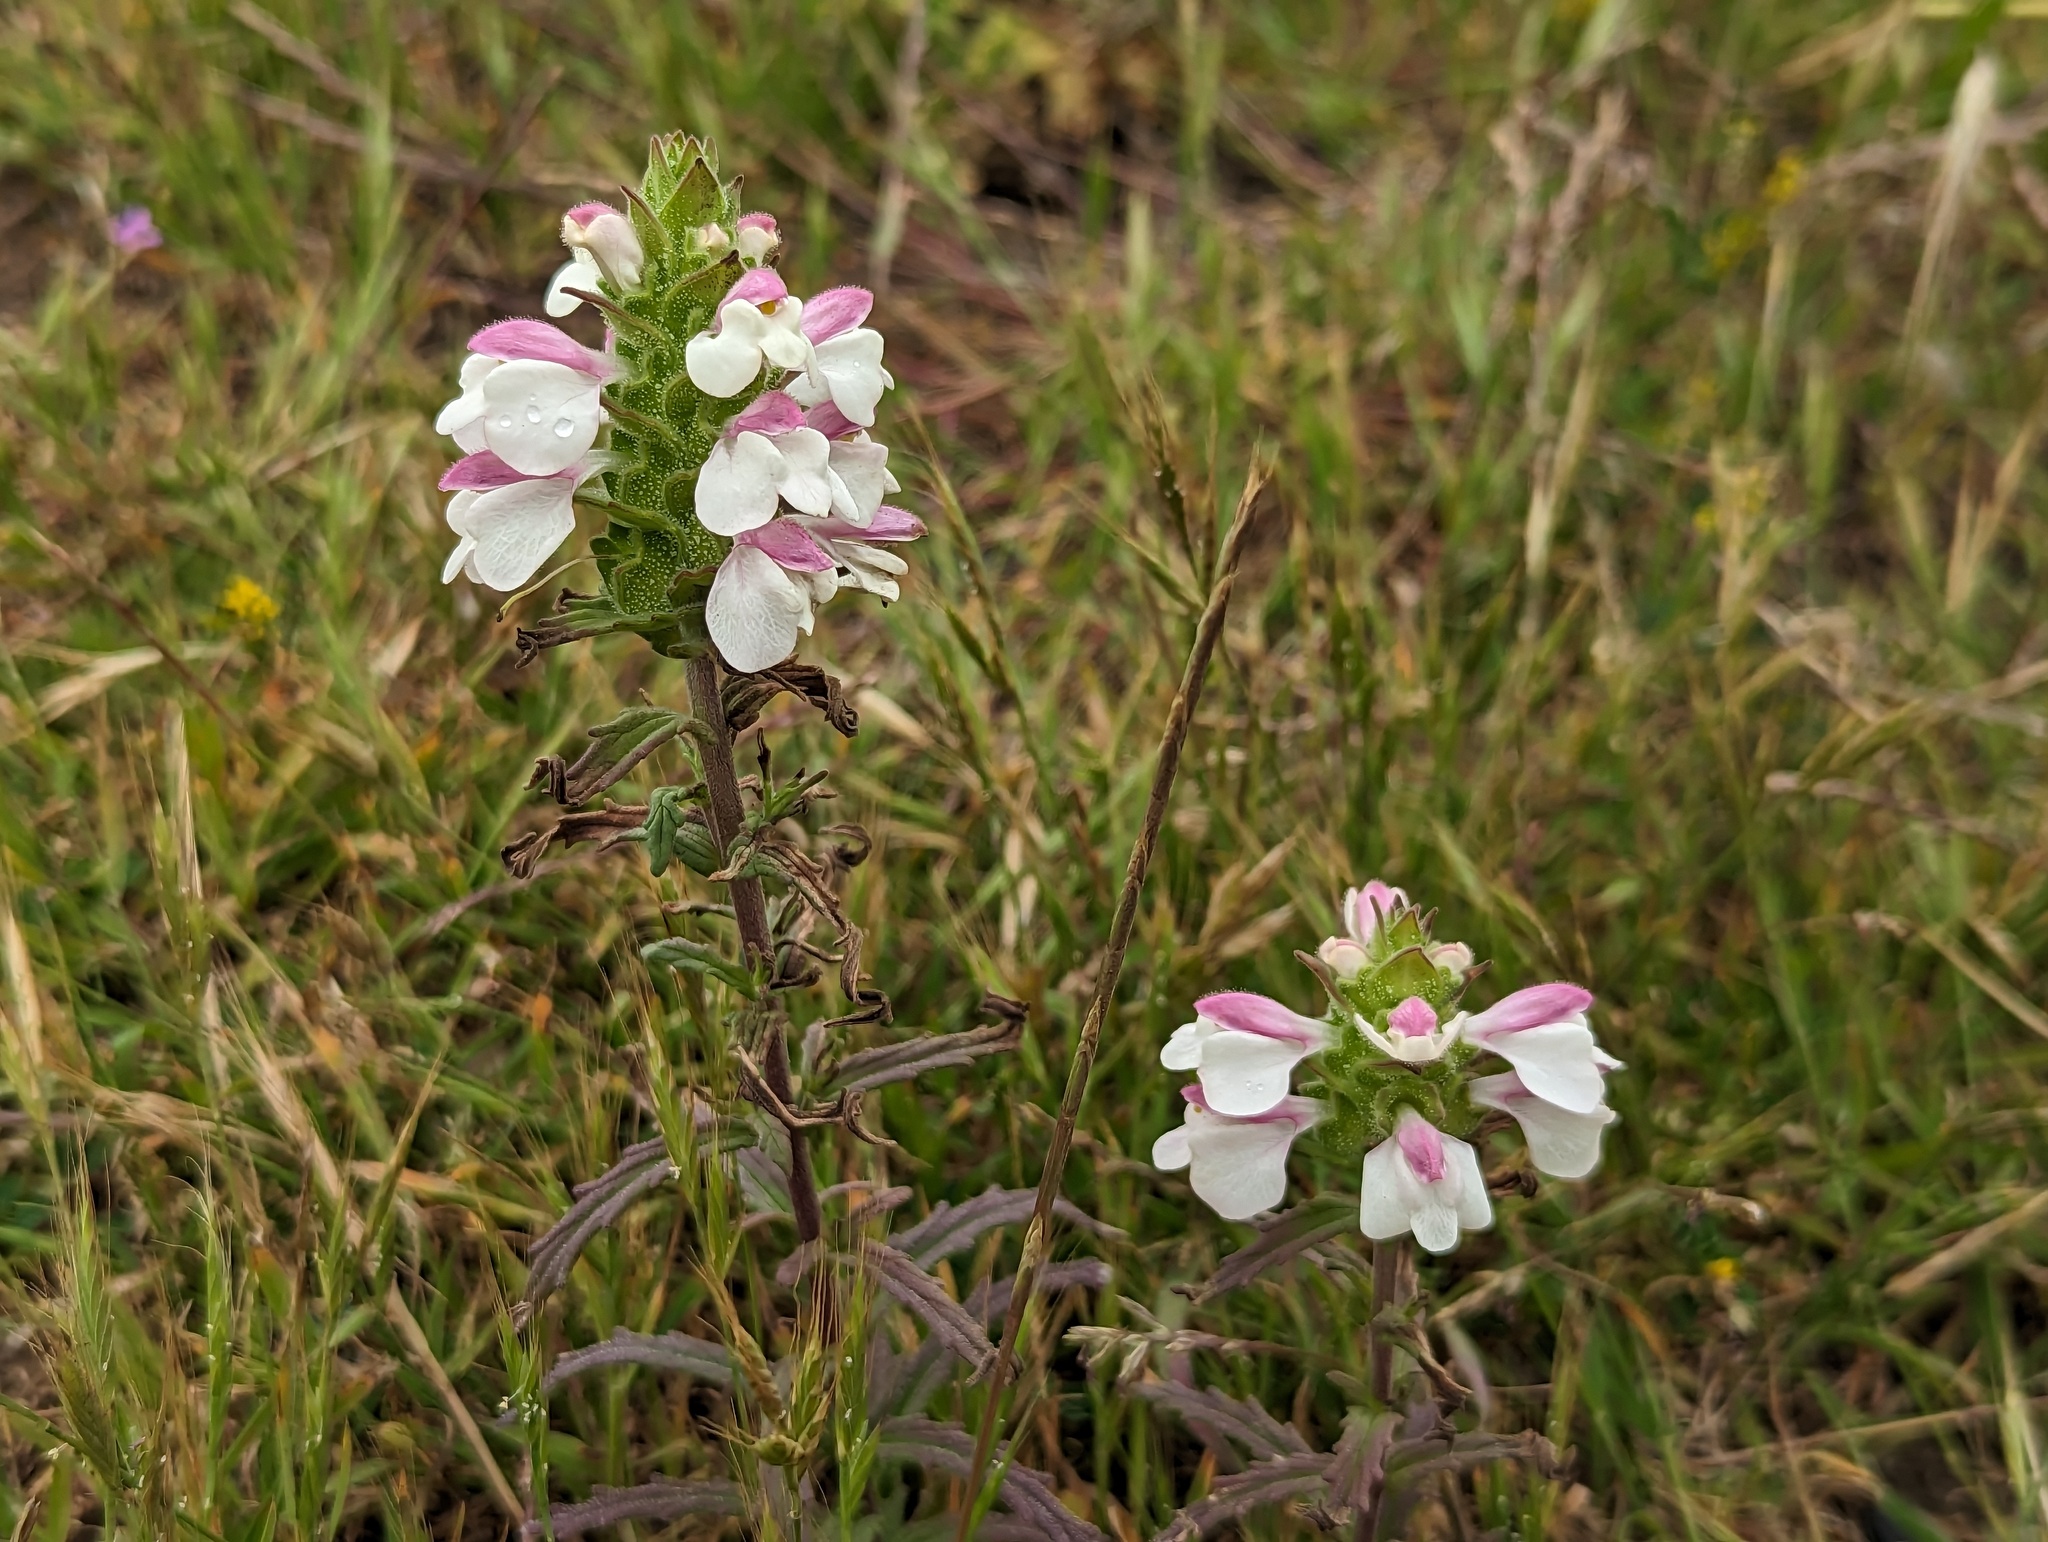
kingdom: Plantae
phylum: Tracheophyta
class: Magnoliopsida
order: Lamiales
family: Orobanchaceae
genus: Bellardia
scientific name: Bellardia trixago
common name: Mediterranean lineseed
